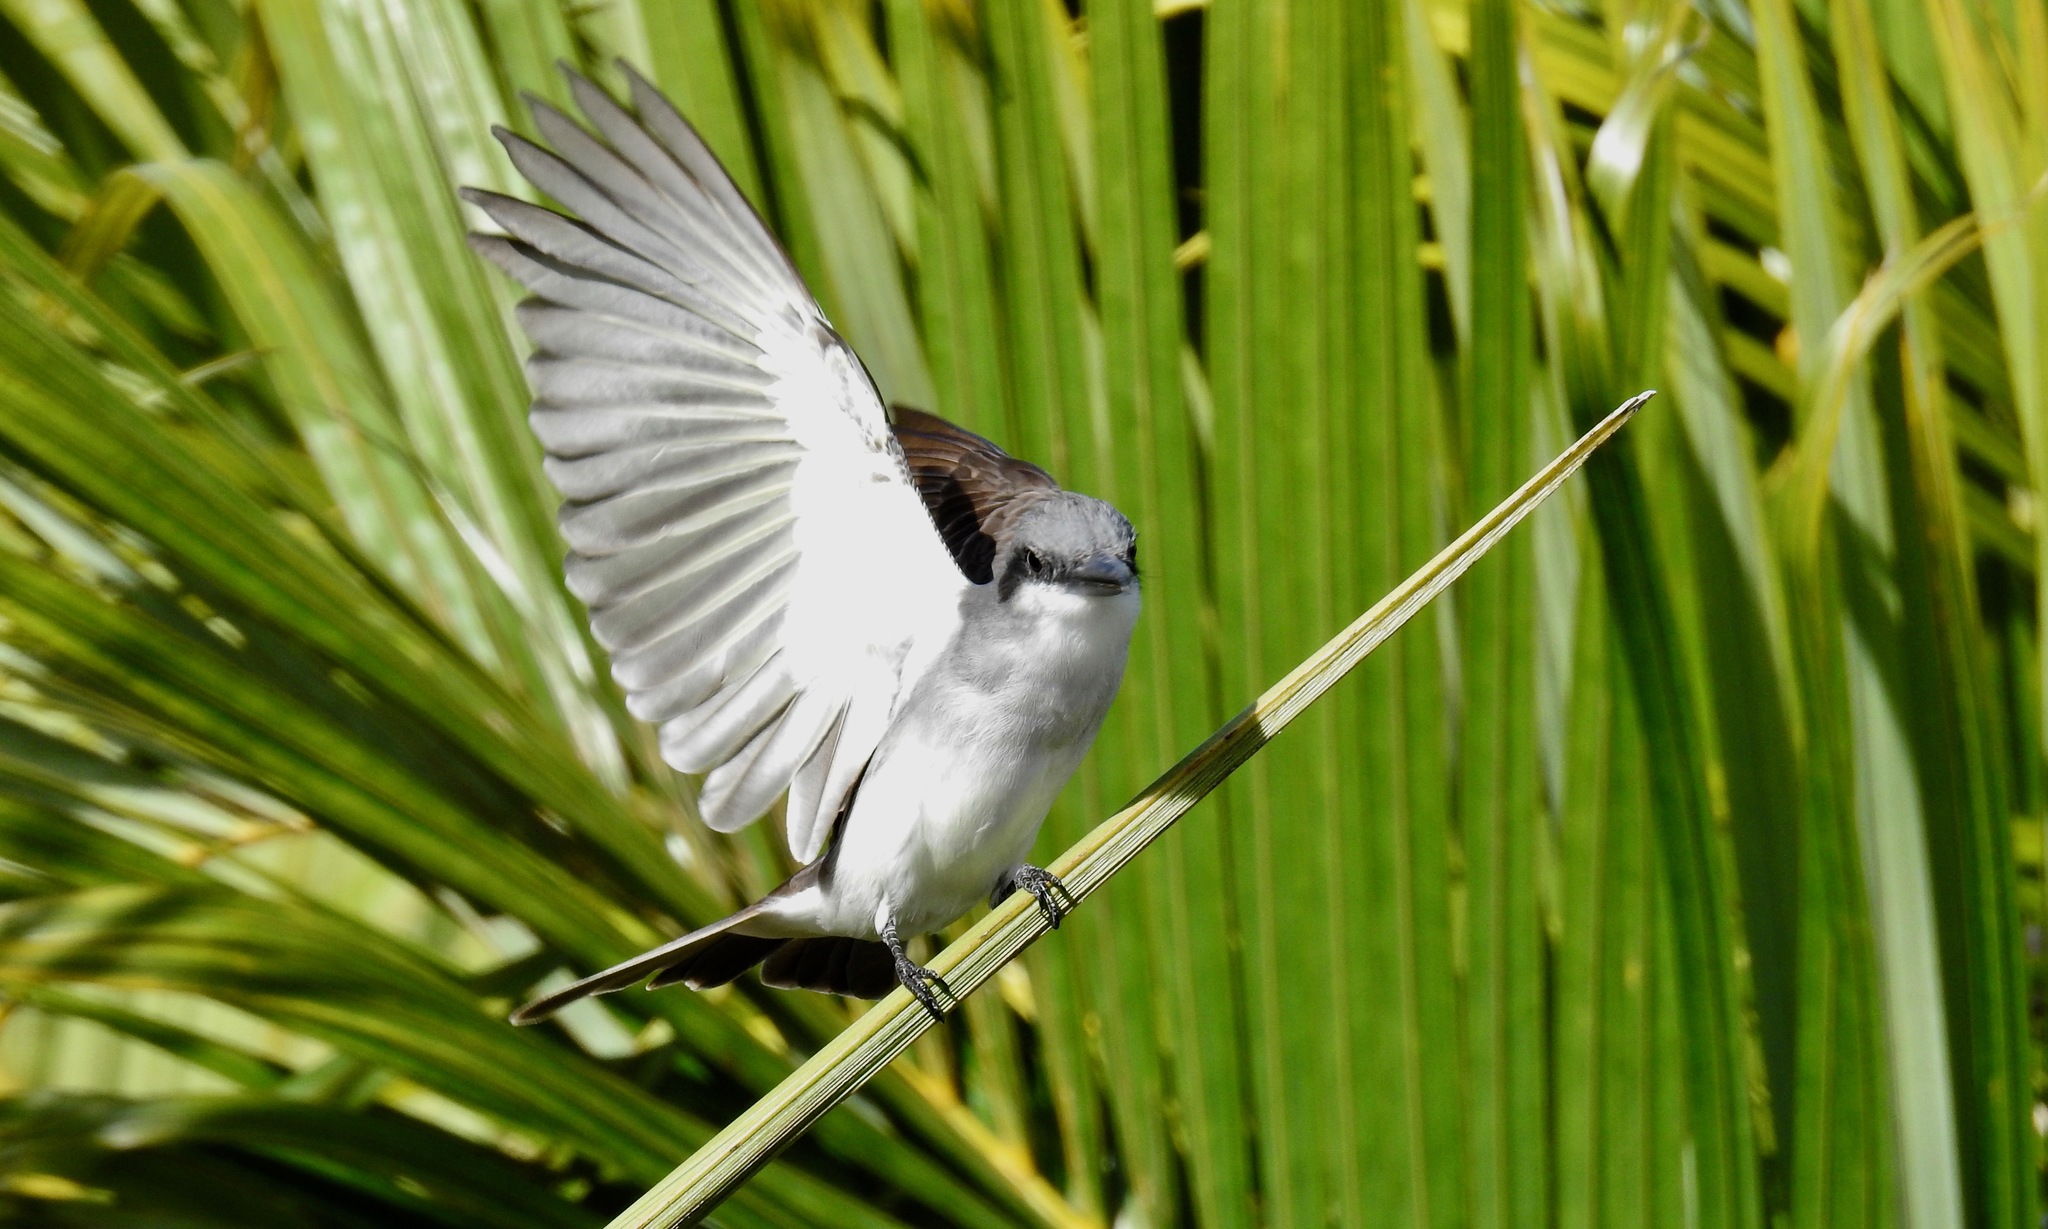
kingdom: Animalia
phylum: Chordata
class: Aves
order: Passeriformes
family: Tyrannidae
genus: Tyrannus
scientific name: Tyrannus dominicensis
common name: Gray kingbird
